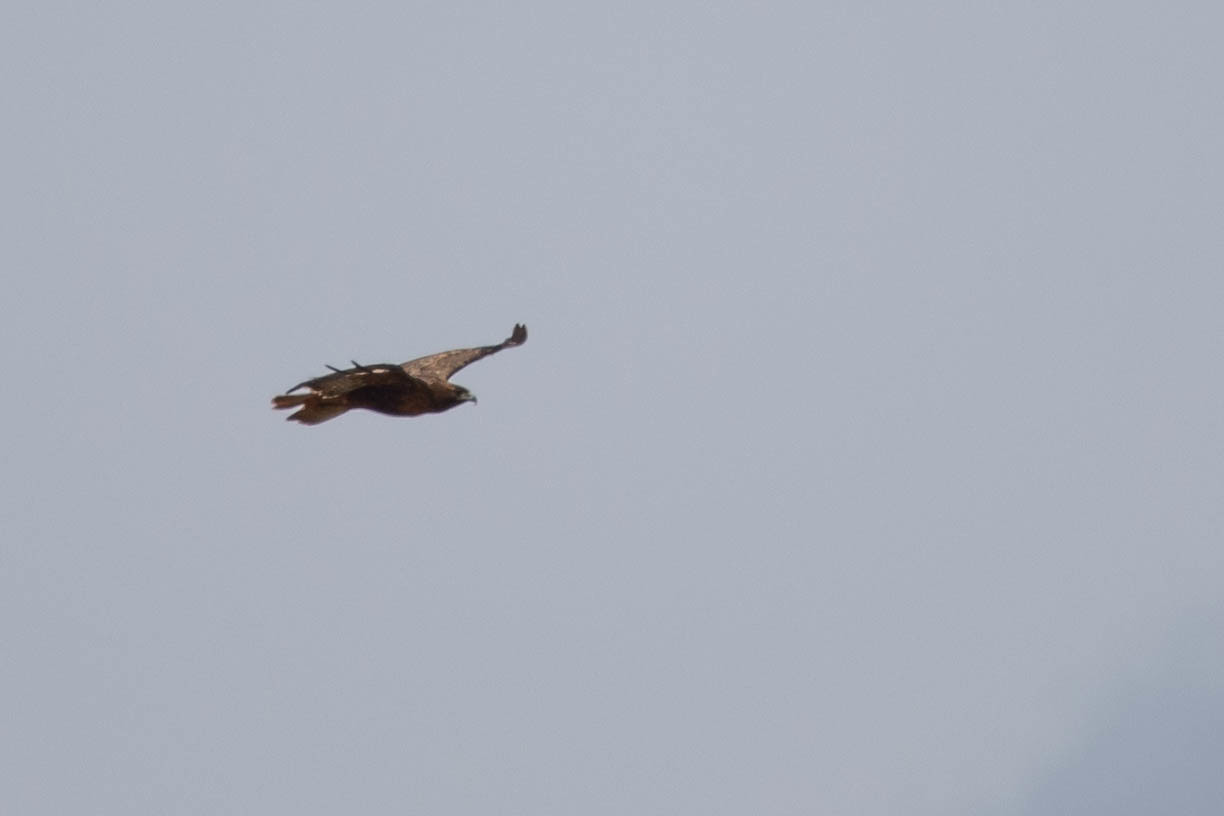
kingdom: Animalia
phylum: Chordata
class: Aves
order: Accipitriformes
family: Accipitridae
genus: Buteo
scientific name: Buteo jamaicensis
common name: Red-tailed hawk
